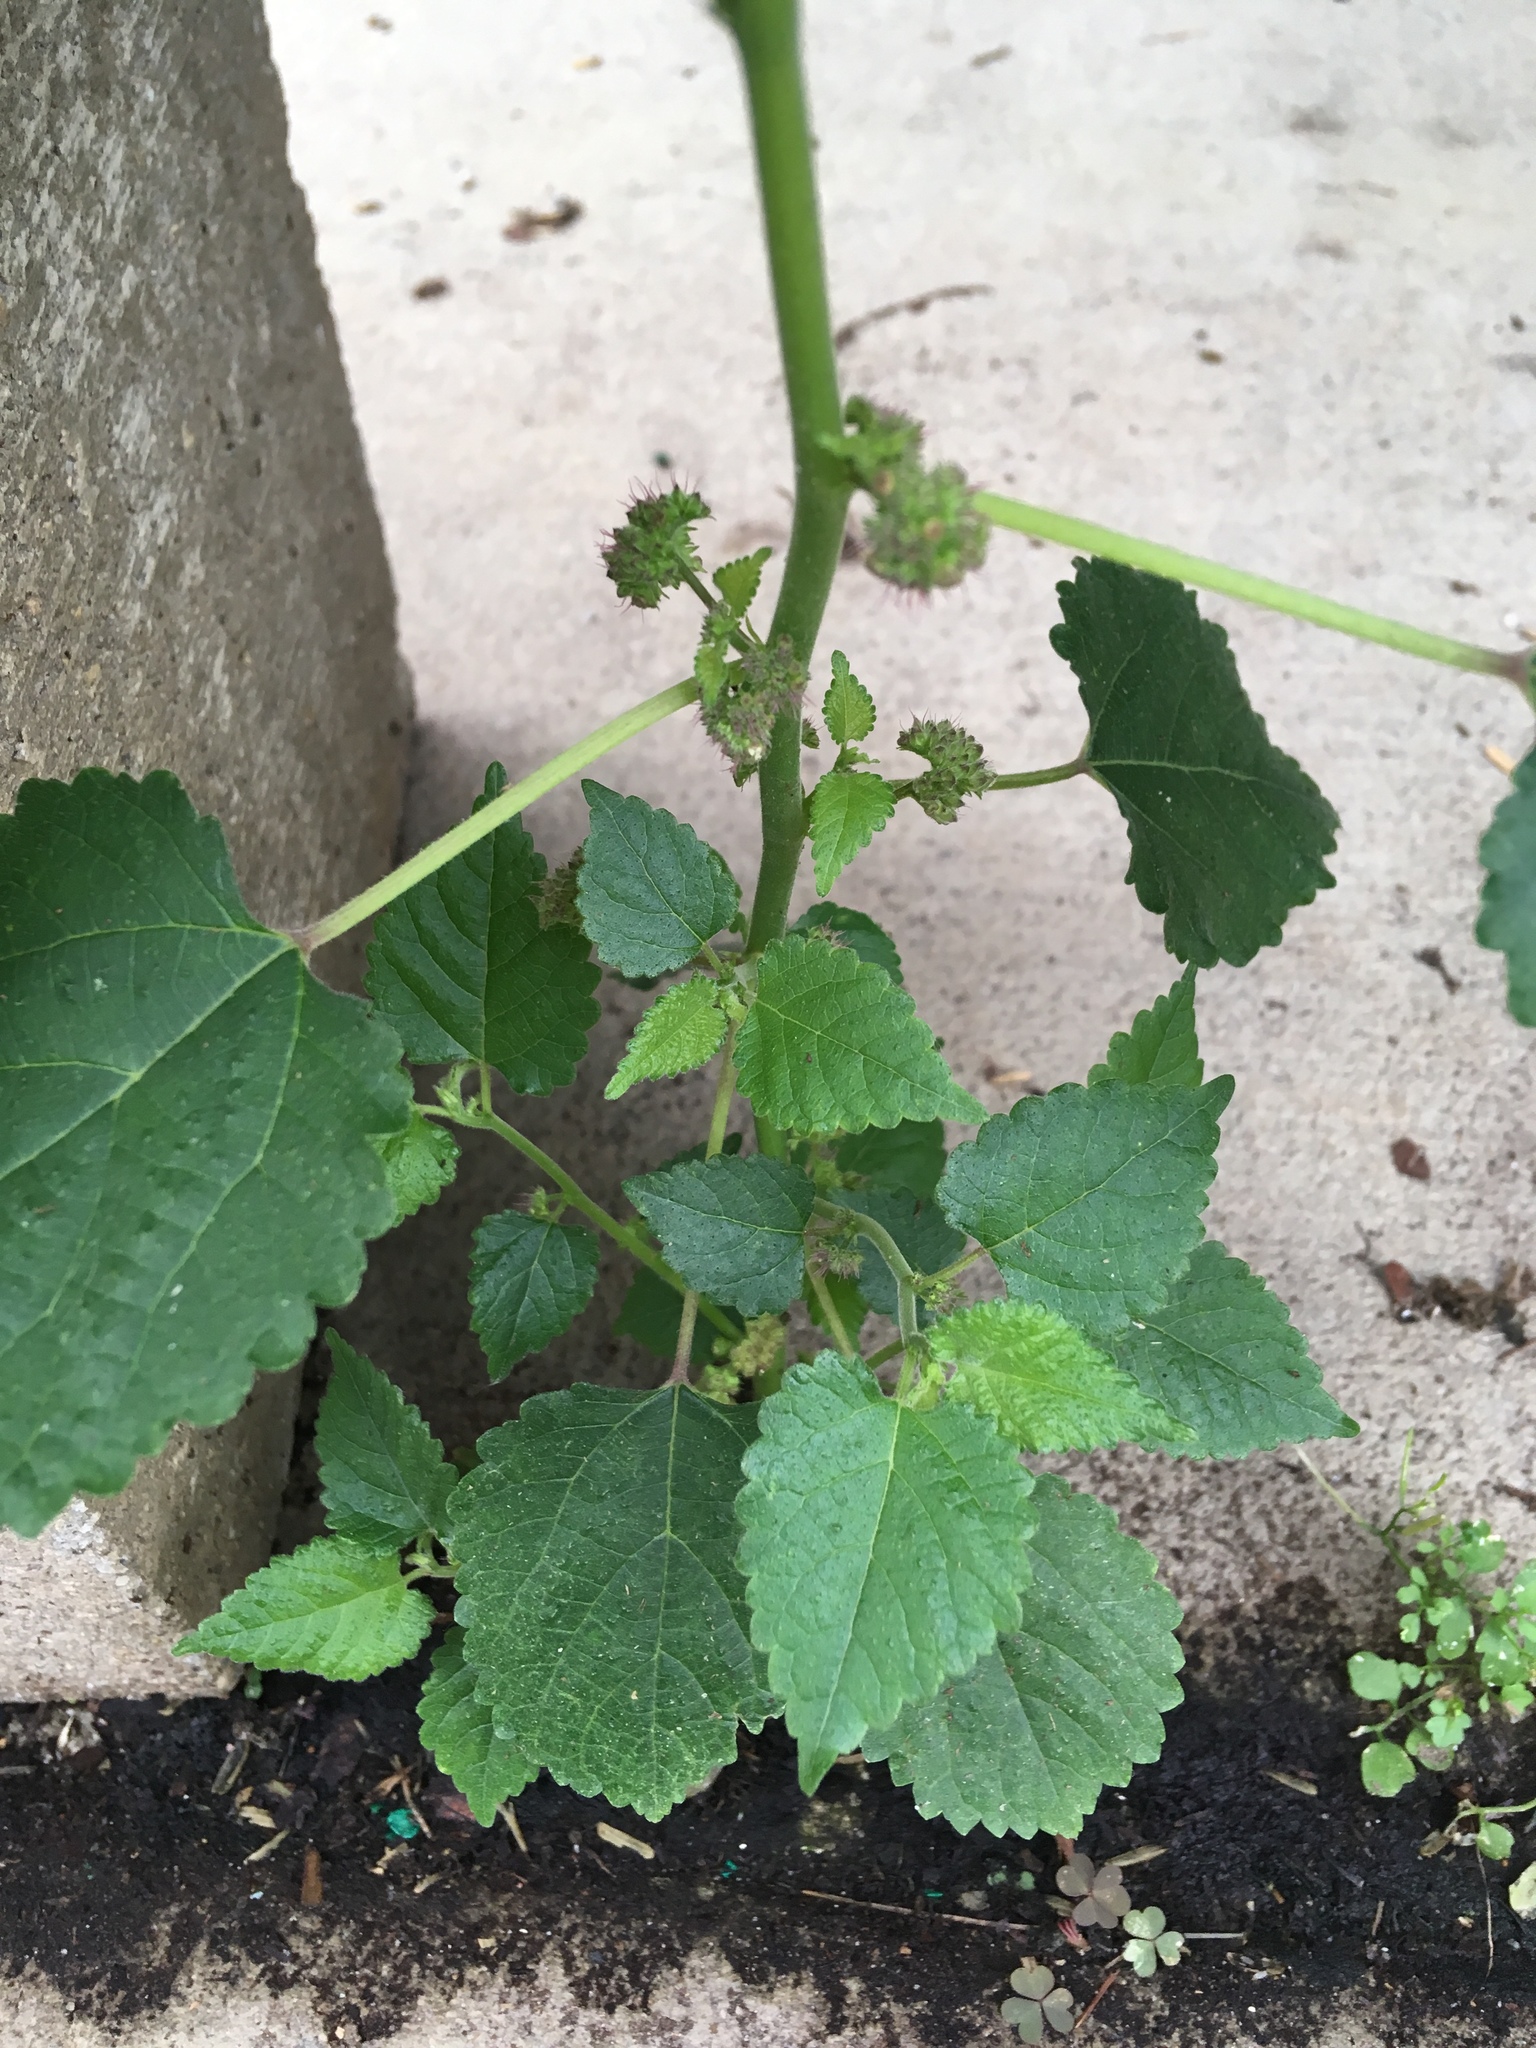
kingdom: Plantae
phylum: Tracheophyta
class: Magnoliopsida
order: Rosales
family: Moraceae
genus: Fatoua
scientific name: Fatoua villosa
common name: Hairy crabweed
